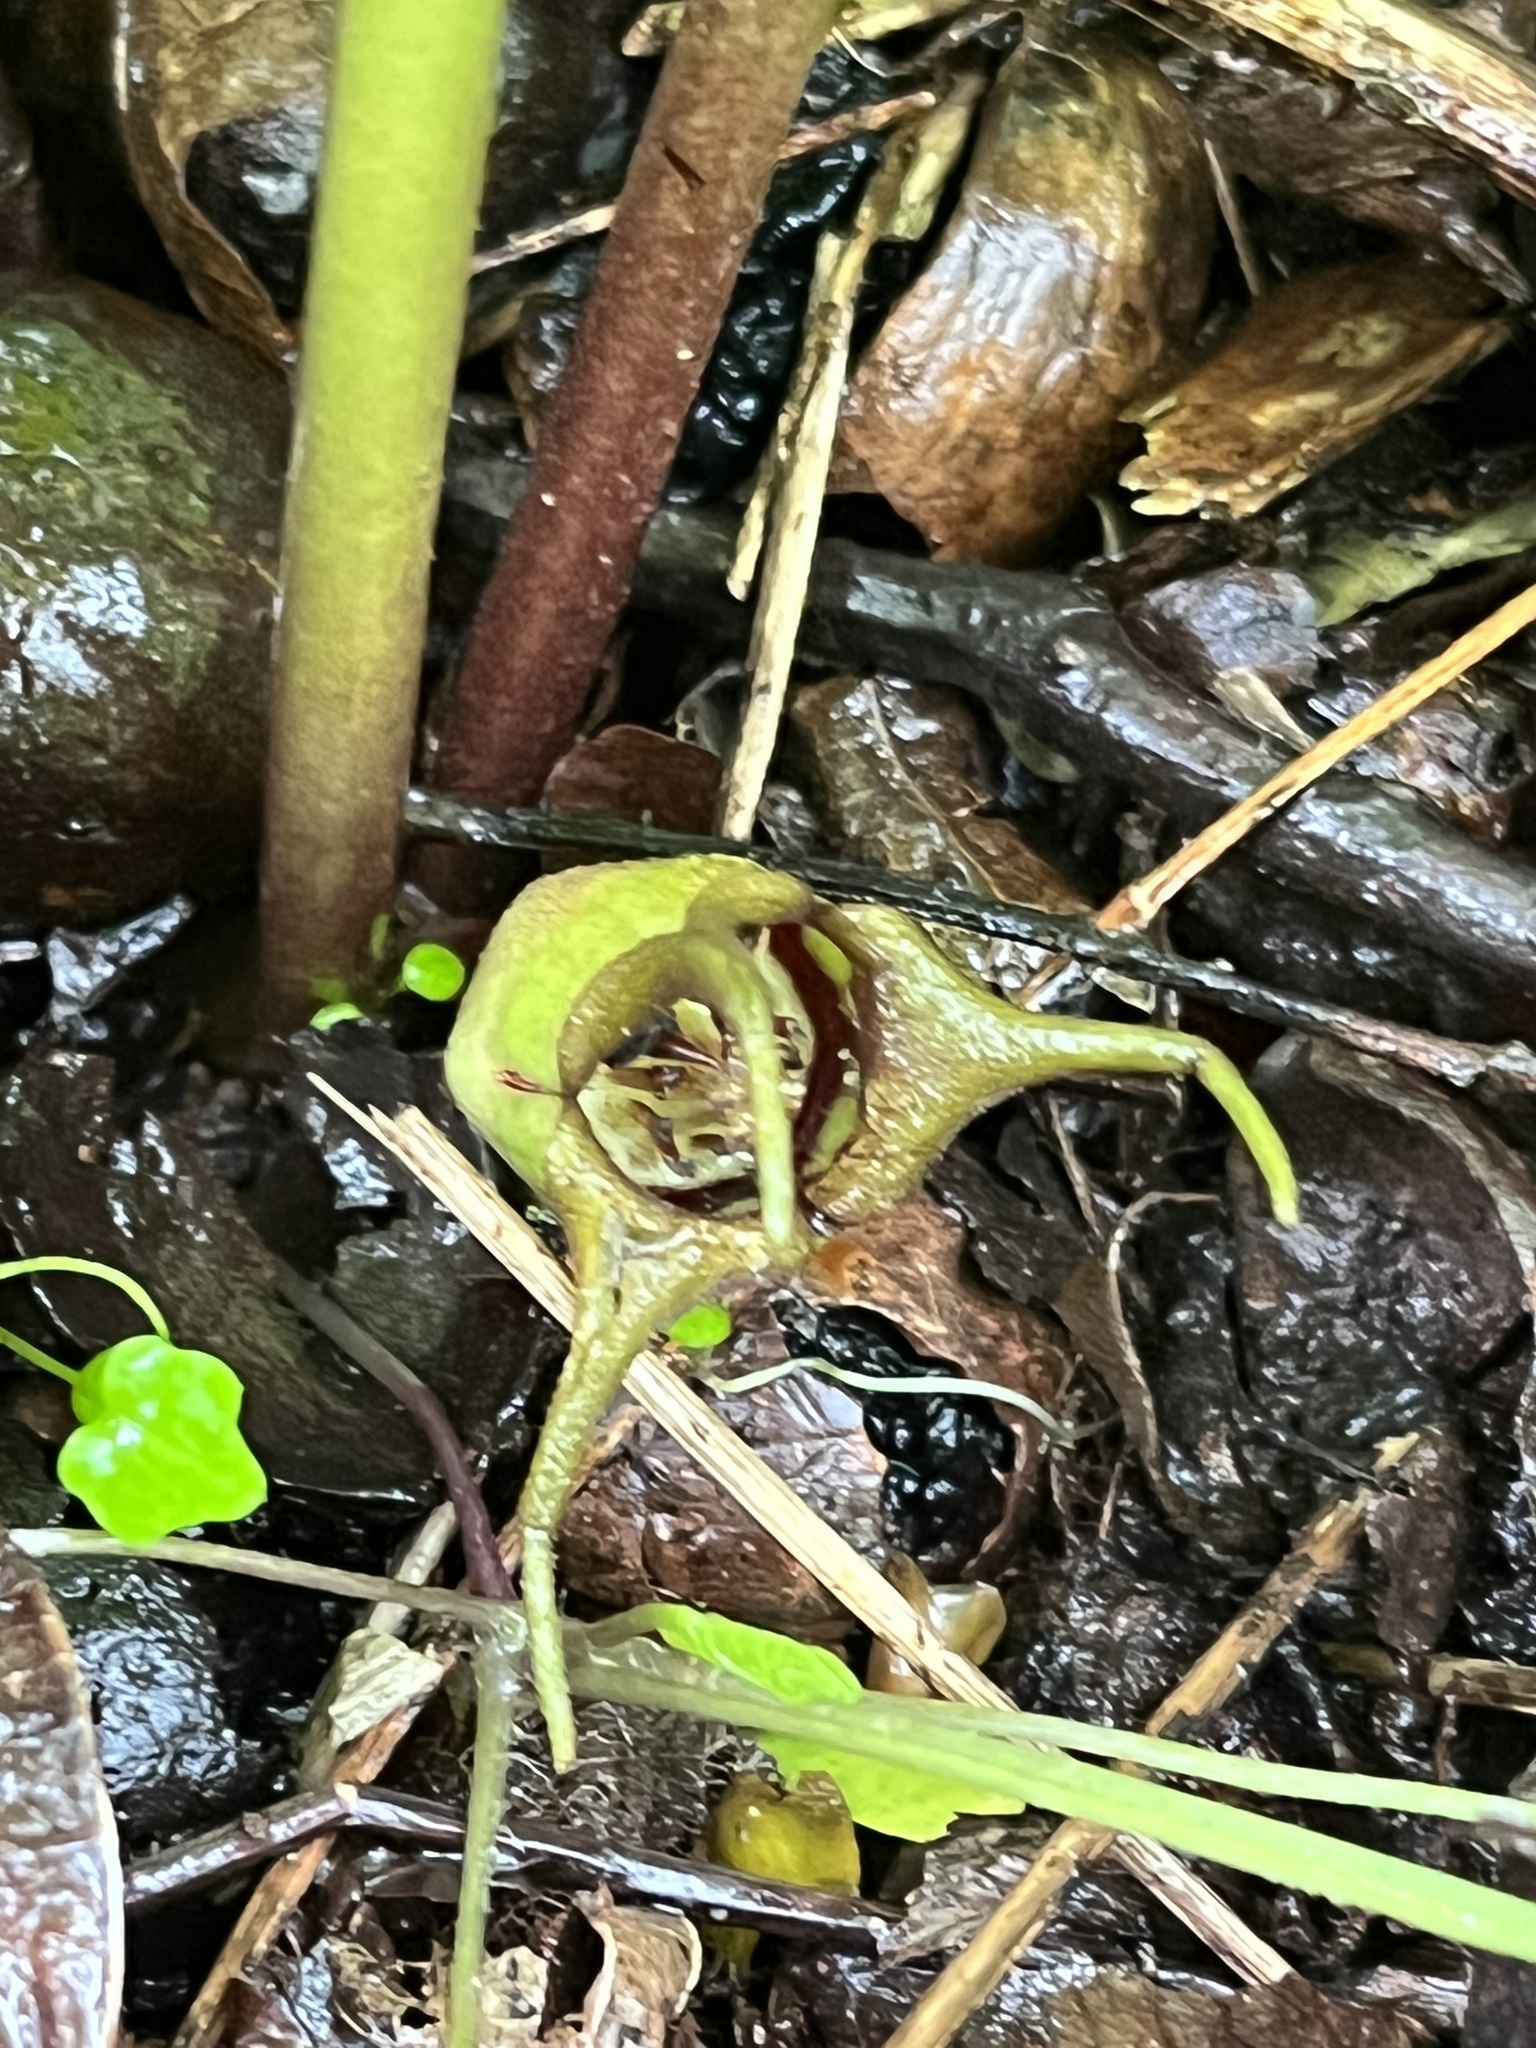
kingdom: Plantae
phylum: Tracheophyta
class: Magnoliopsida
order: Piperales
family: Aristolochiaceae
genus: Asarum
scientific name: Asarum canadense
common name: Wild ginger
